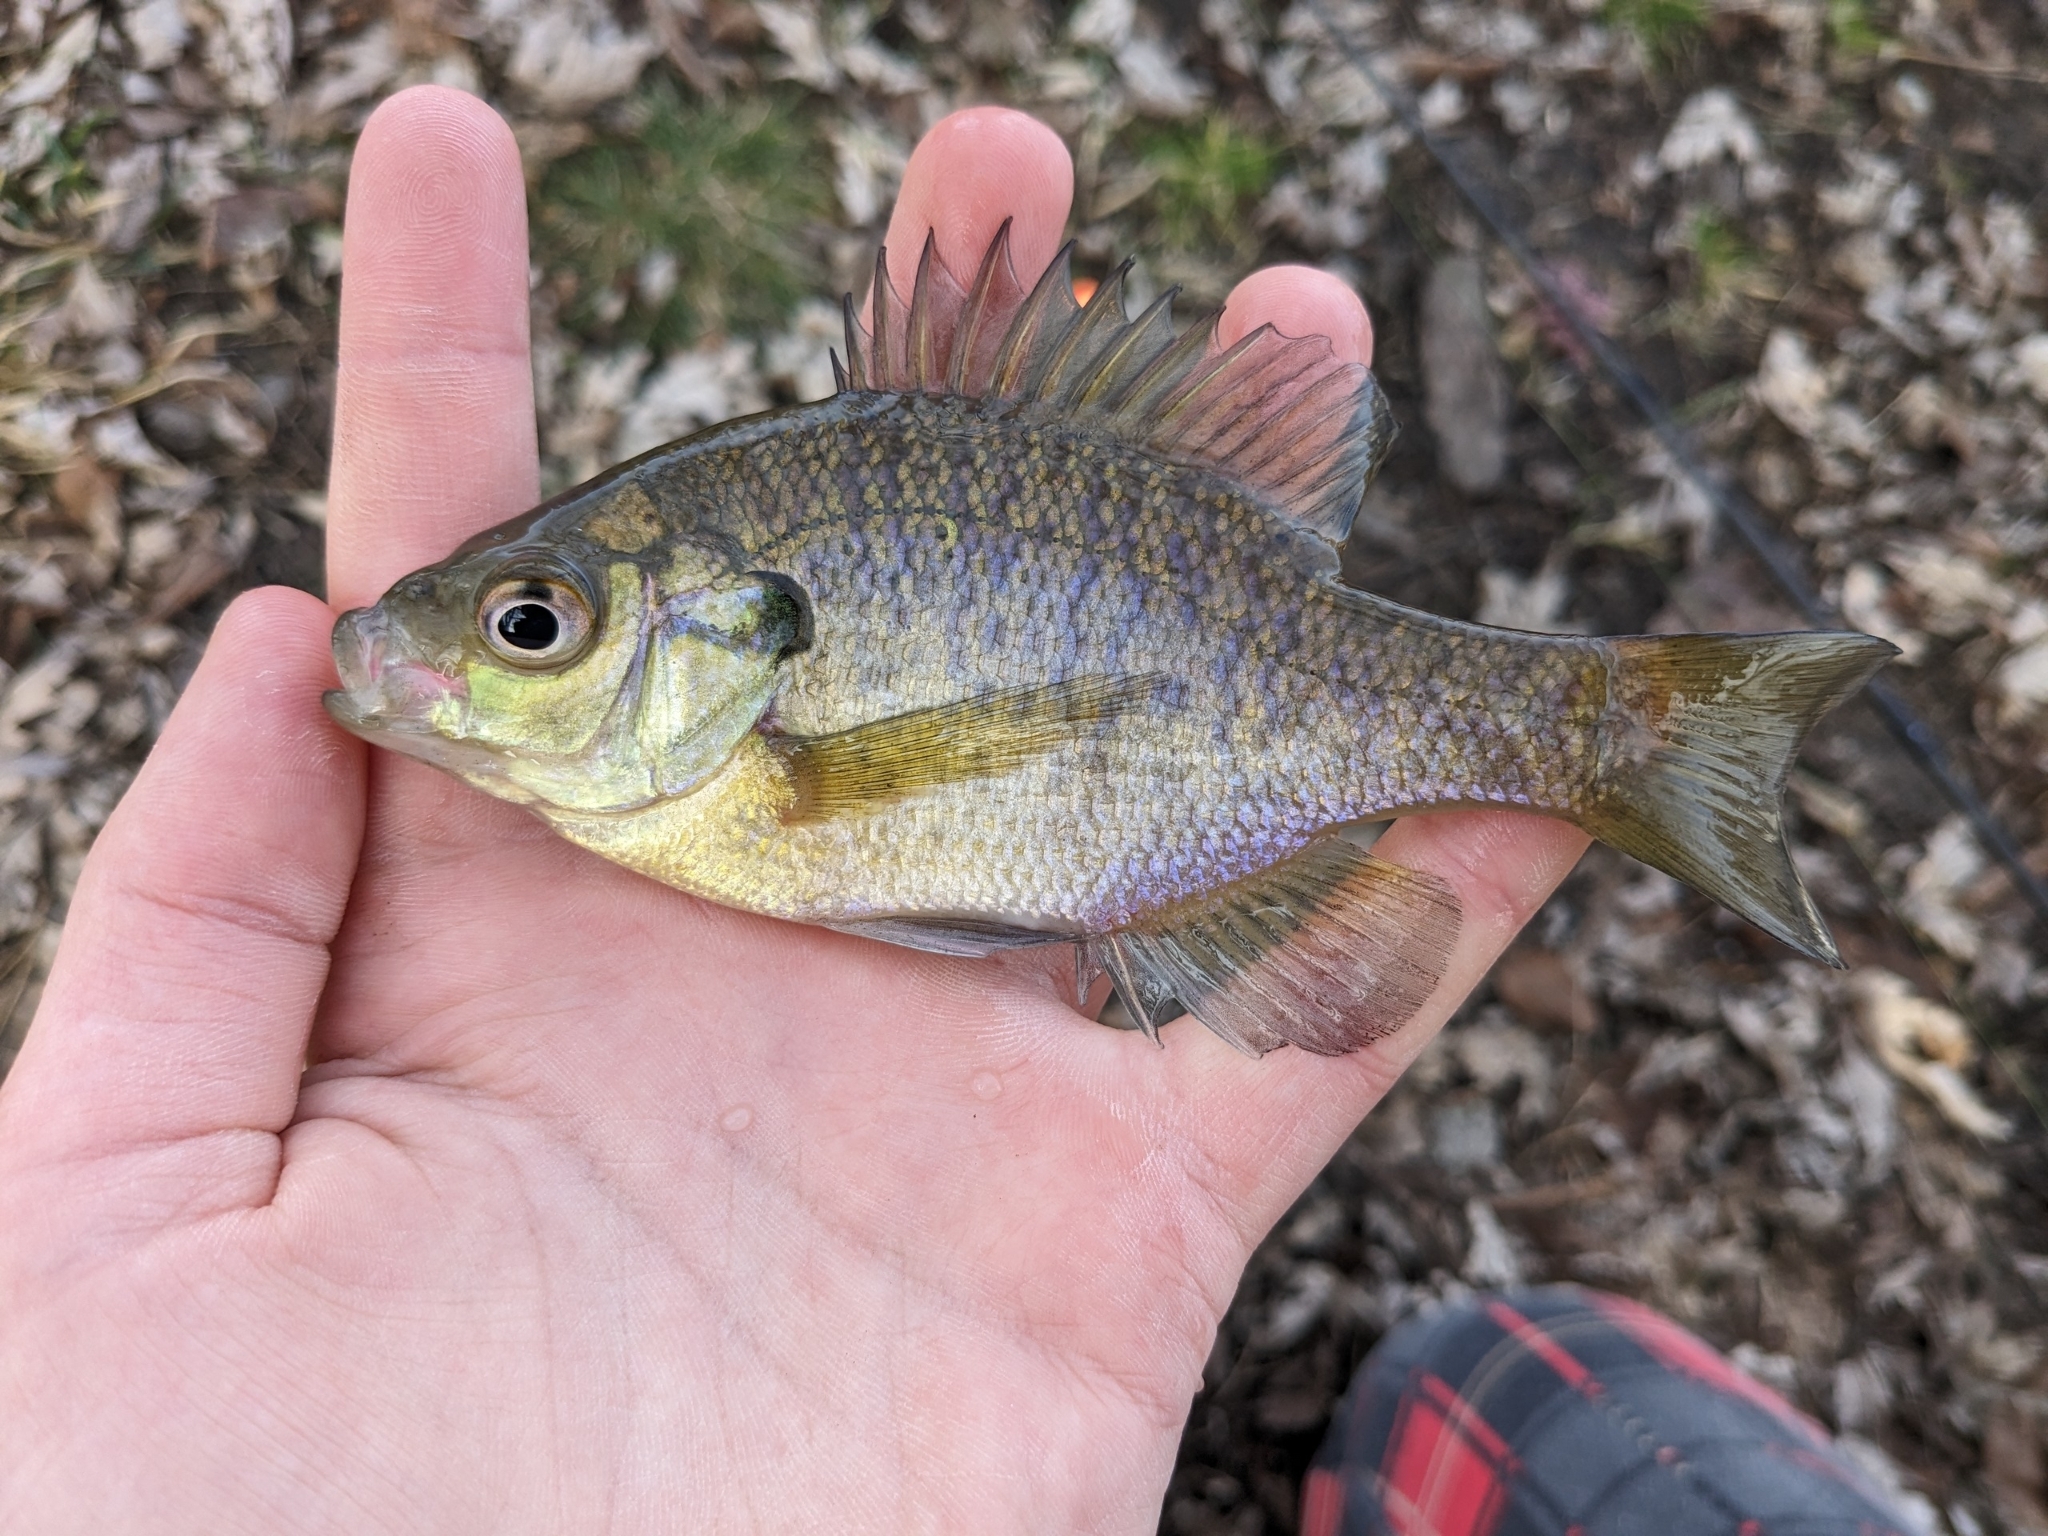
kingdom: Animalia
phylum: Chordata
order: Perciformes
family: Centrarchidae
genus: Lepomis
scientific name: Lepomis macrochirus
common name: Bluegill
